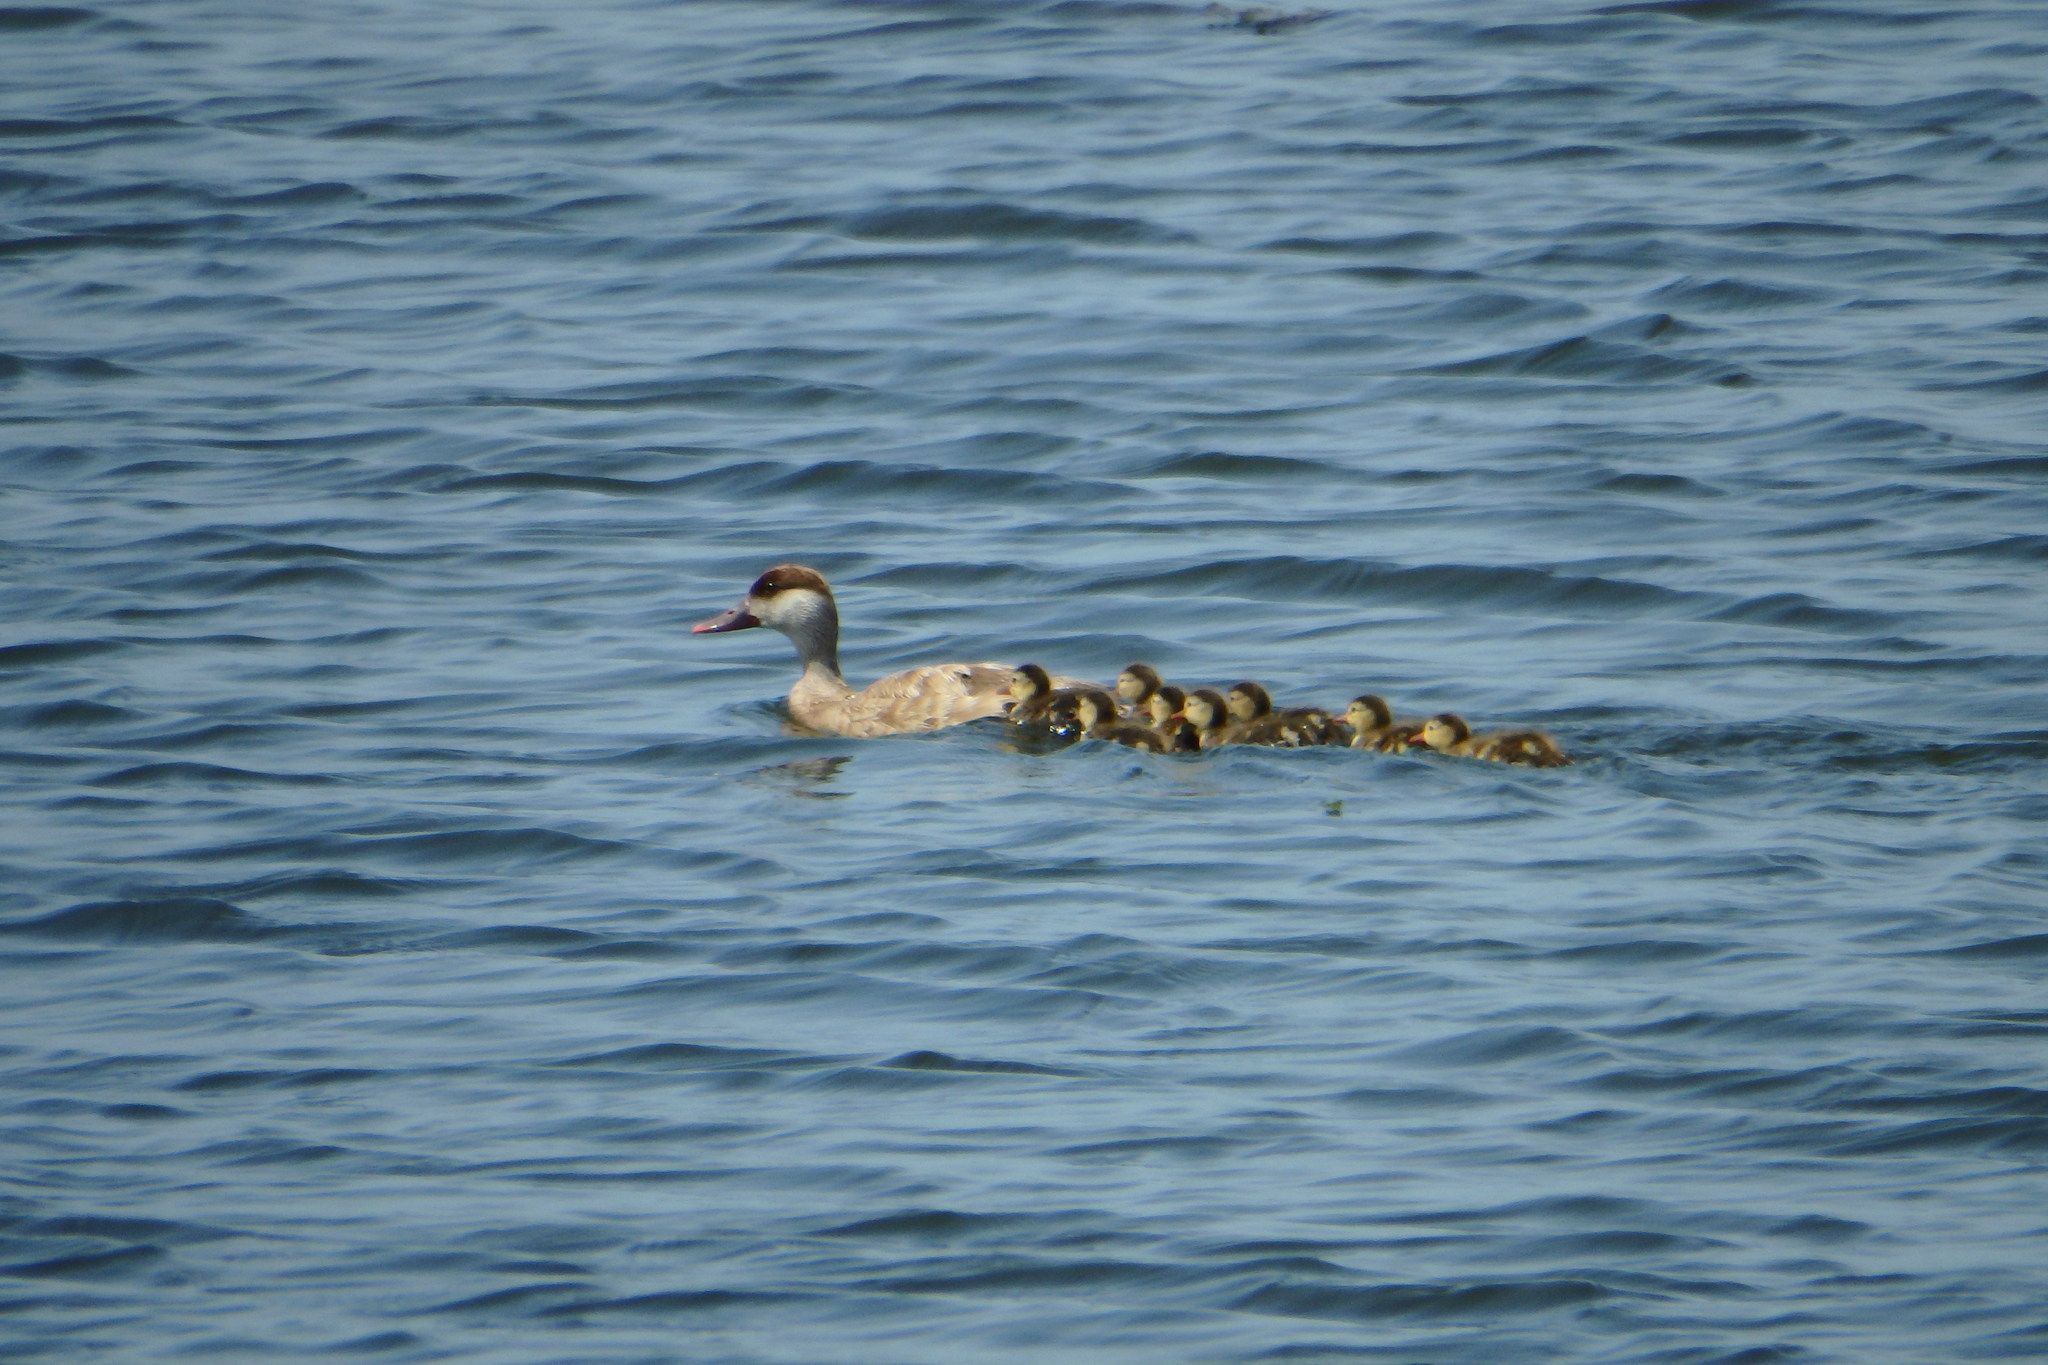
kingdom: Animalia
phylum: Chordata
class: Aves
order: Anseriformes
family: Anatidae
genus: Netta
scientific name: Netta rufina
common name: Red-crested pochard
